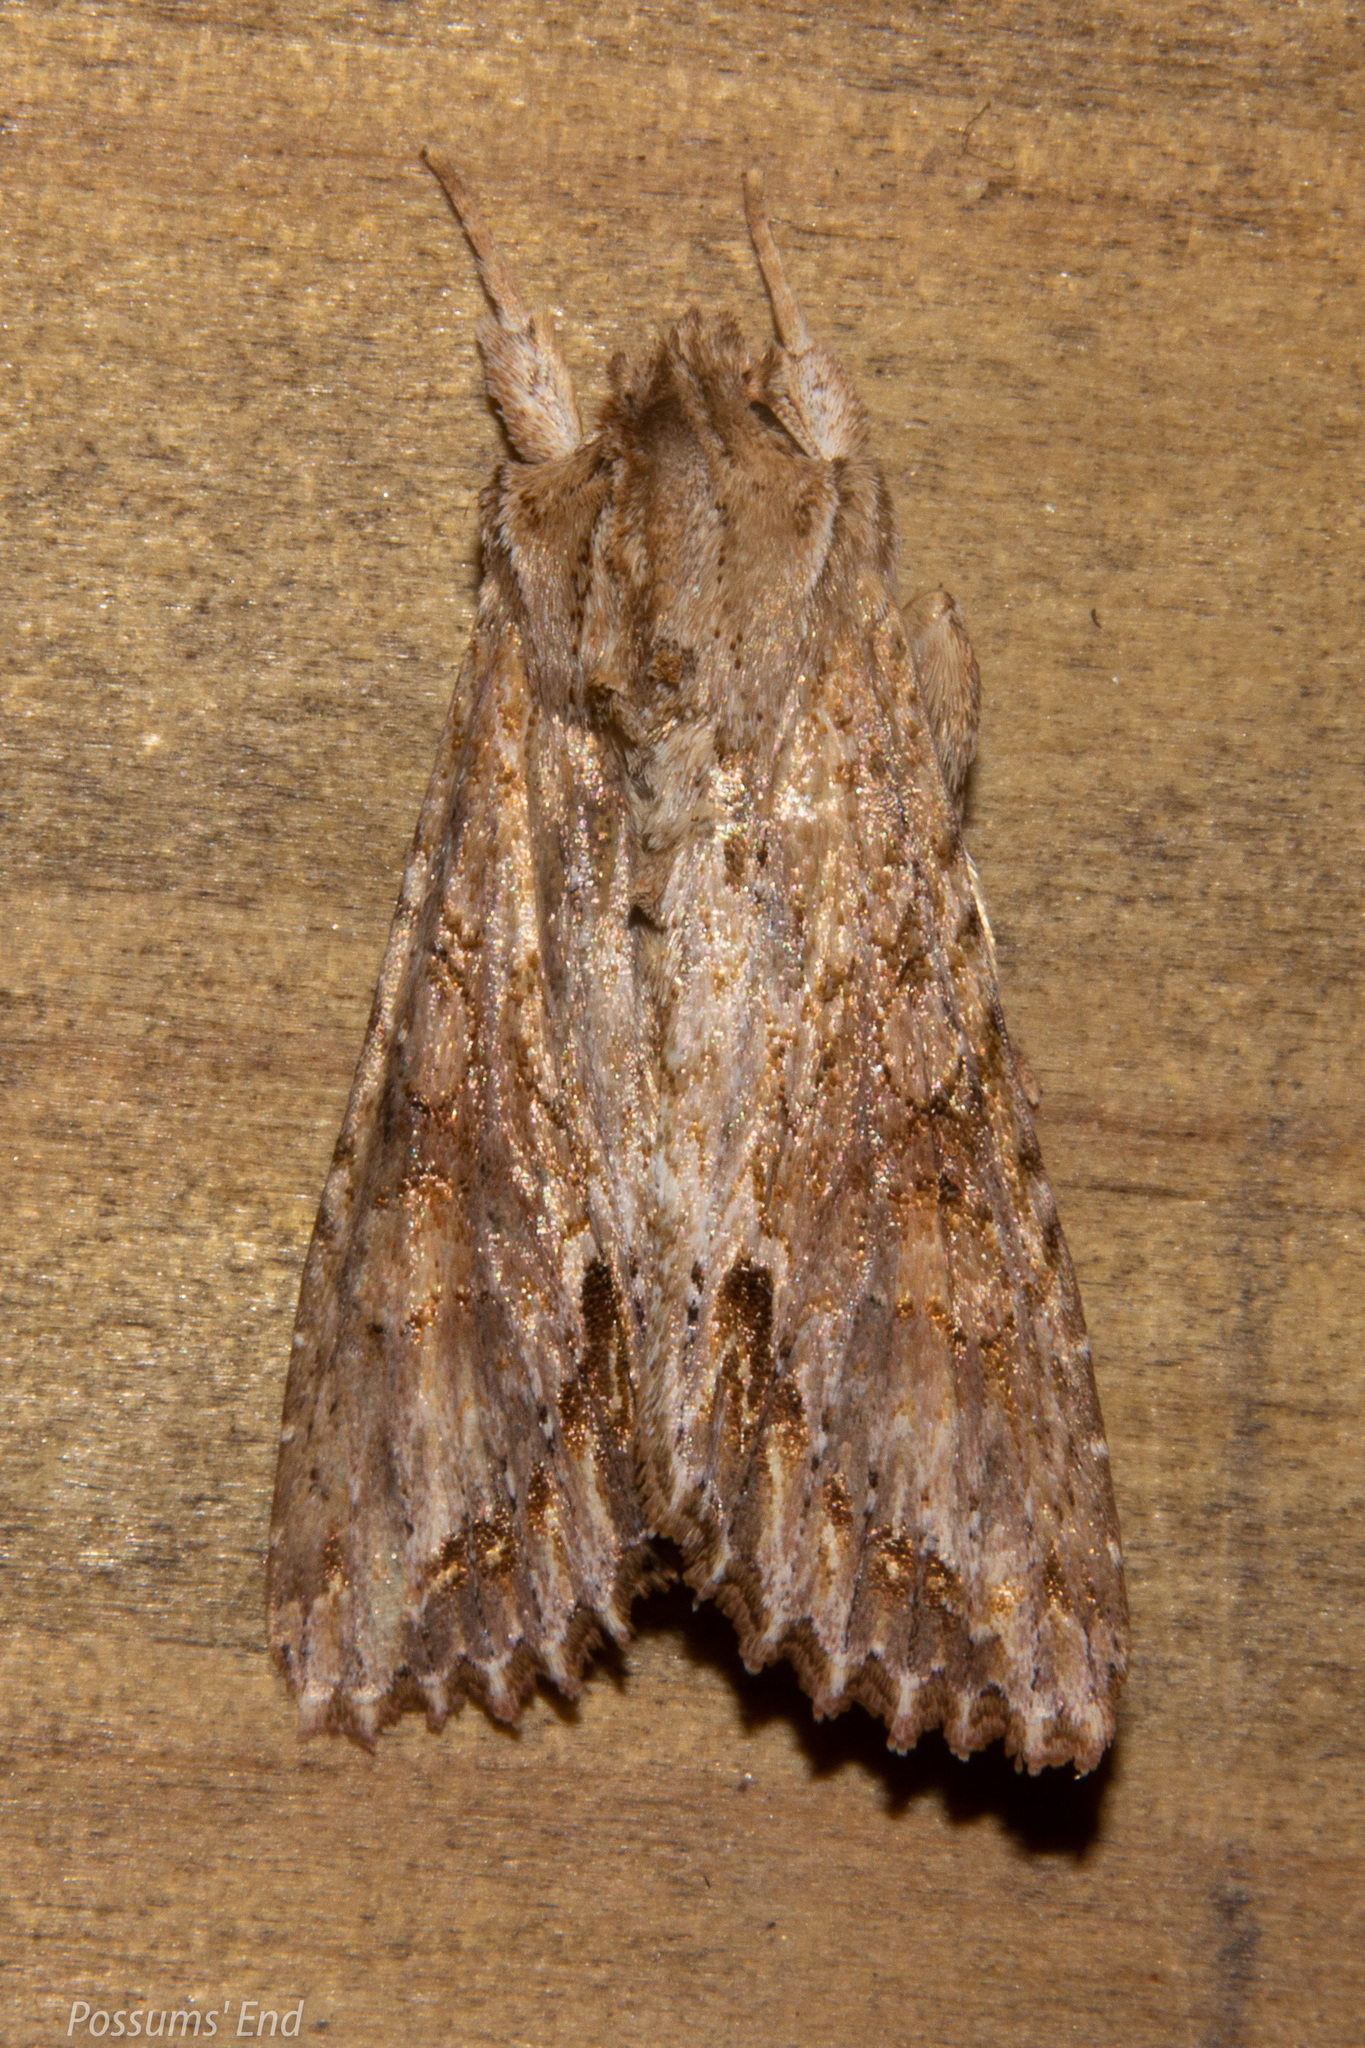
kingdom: Animalia
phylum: Arthropoda
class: Insecta
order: Lepidoptera
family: Noctuidae
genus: Ichneutica
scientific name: Ichneutica mollis
